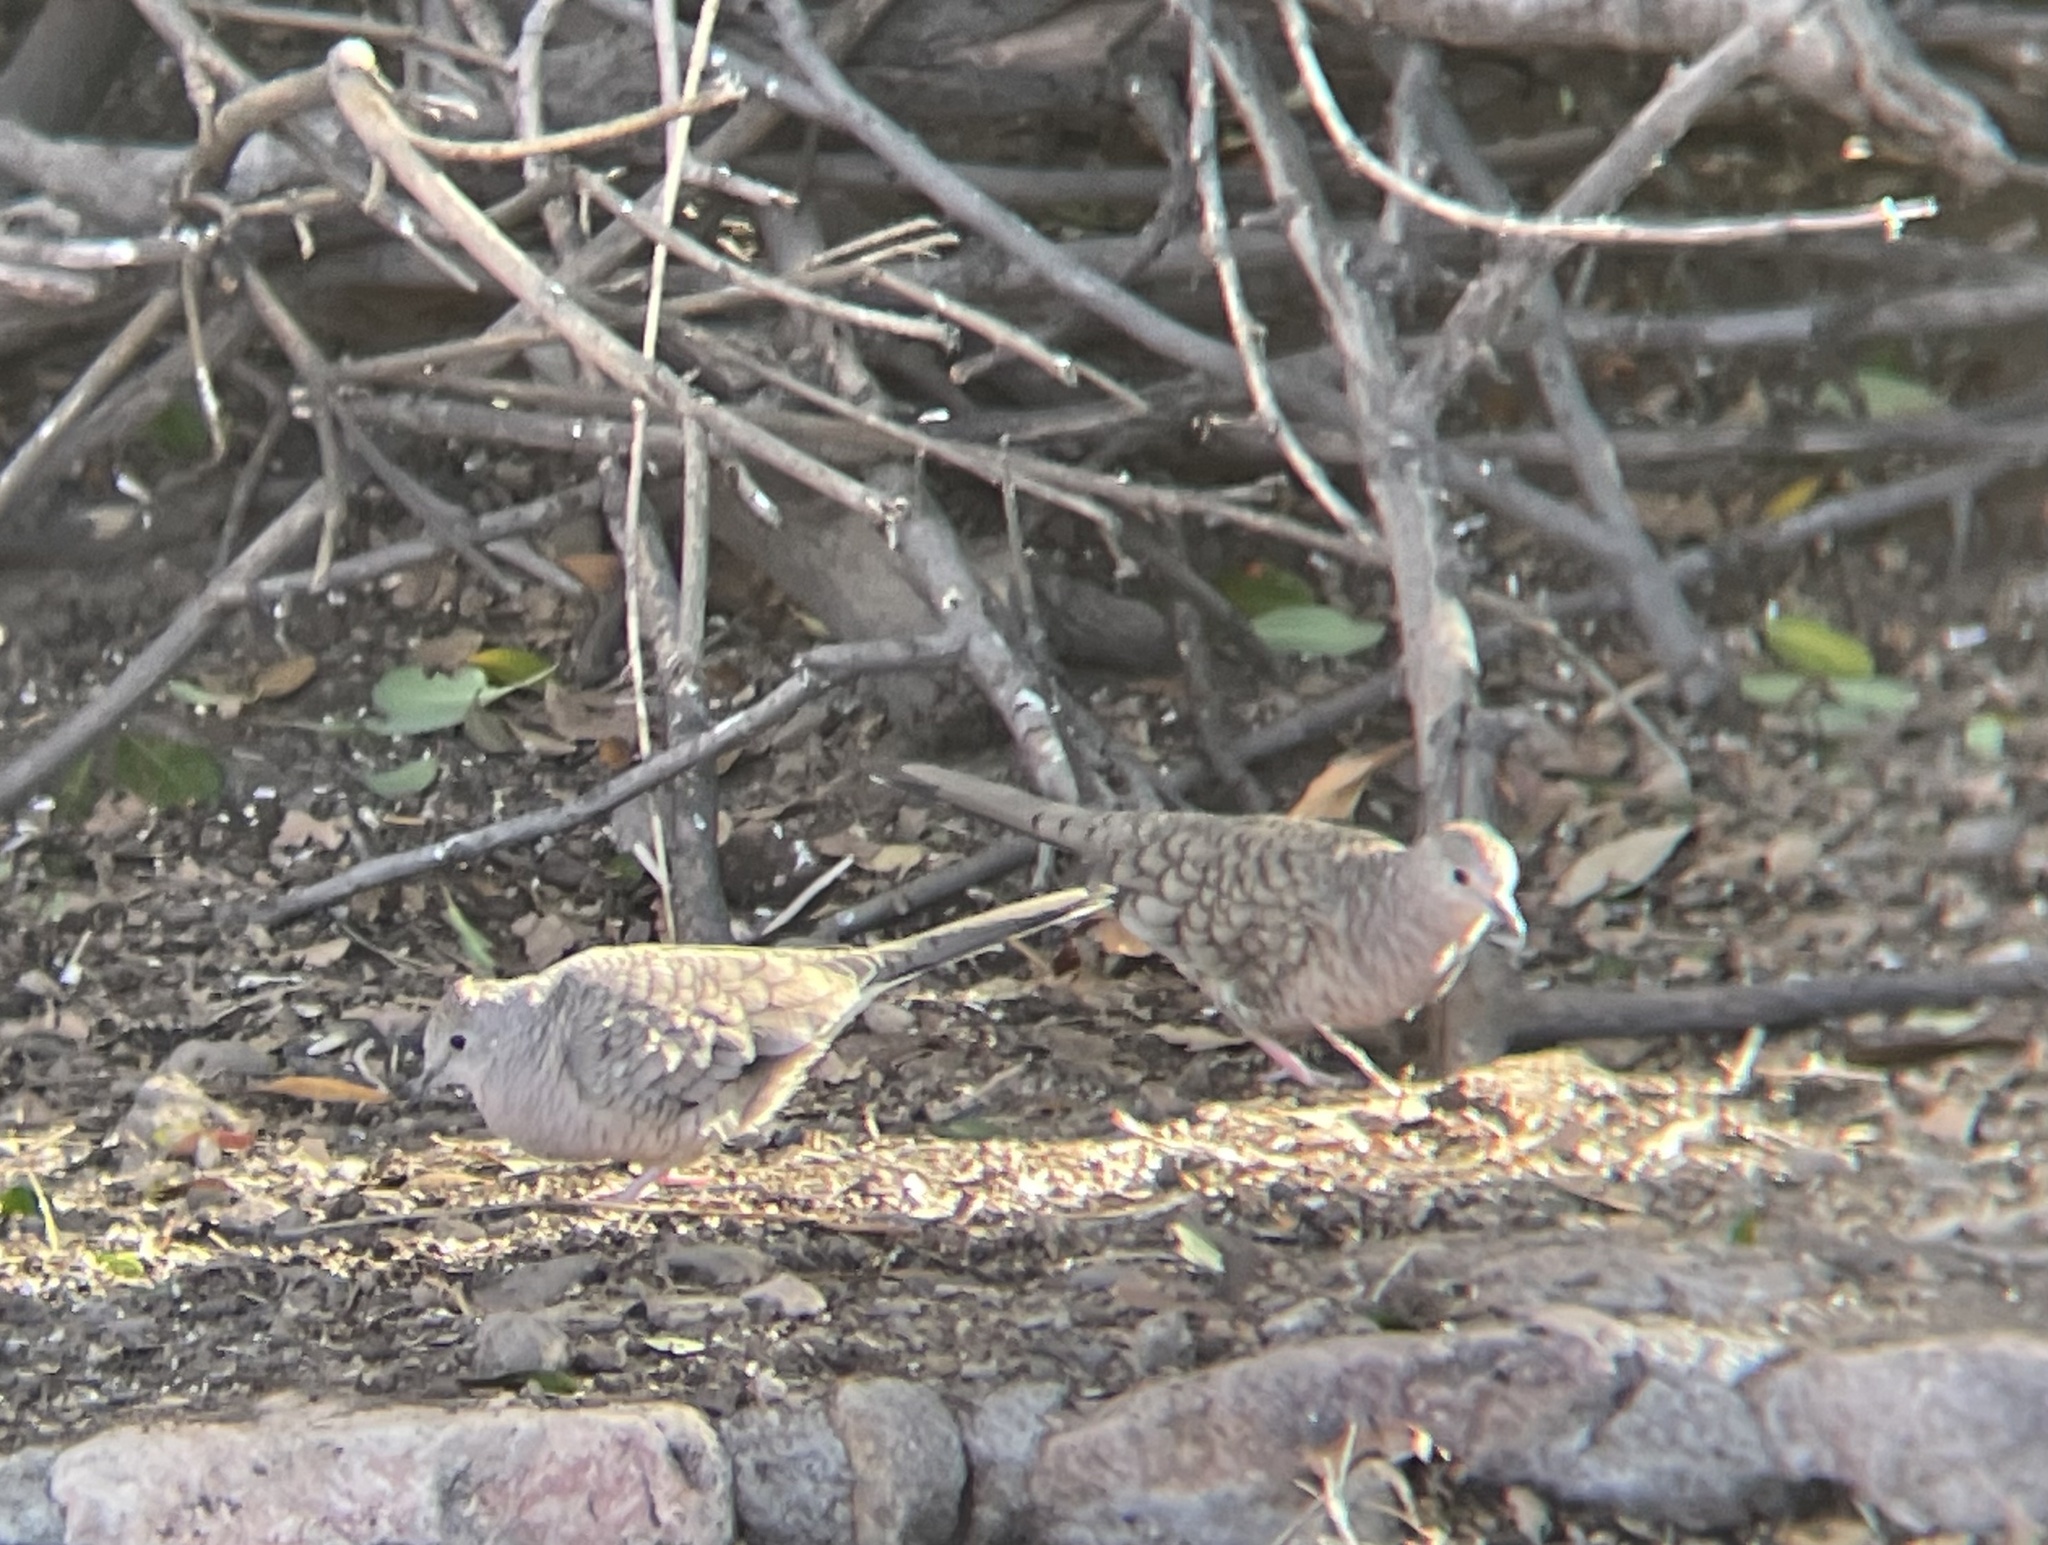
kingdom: Animalia
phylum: Chordata
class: Aves
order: Columbiformes
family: Columbidae
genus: Columbina
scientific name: Columbina inca
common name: Inca dove
